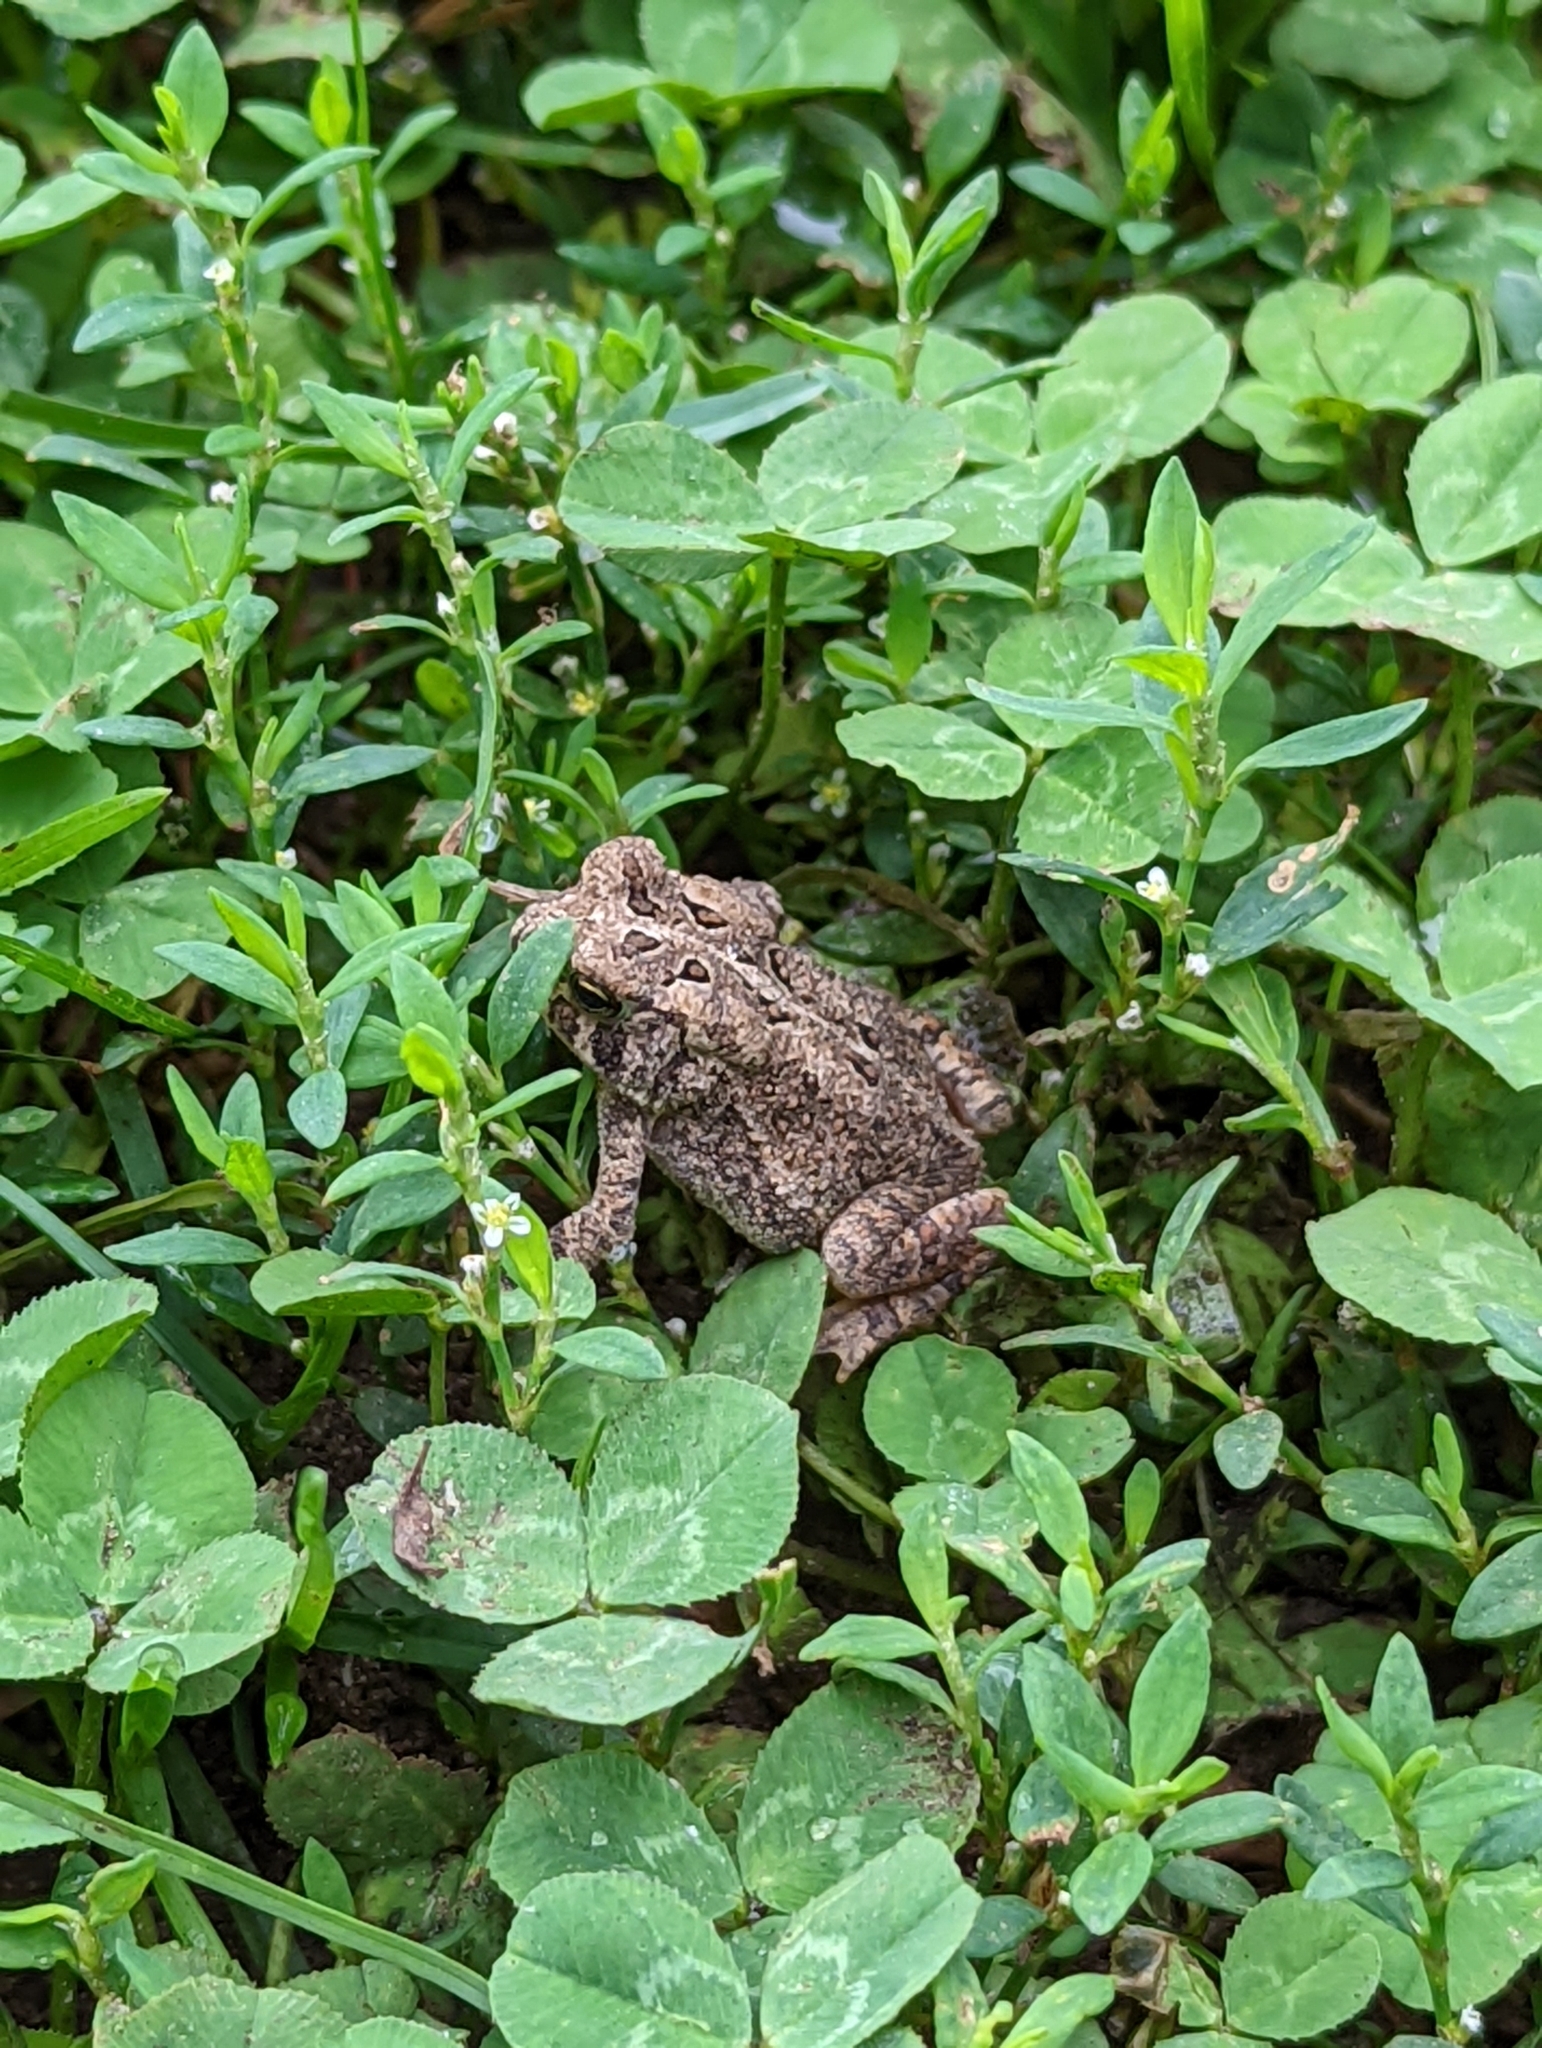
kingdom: Animalia
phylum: Chordata
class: Amphibia
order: Anura
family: Bufonidae
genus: Anaxyrus
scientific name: Anaxyrus americanus
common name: American toad
